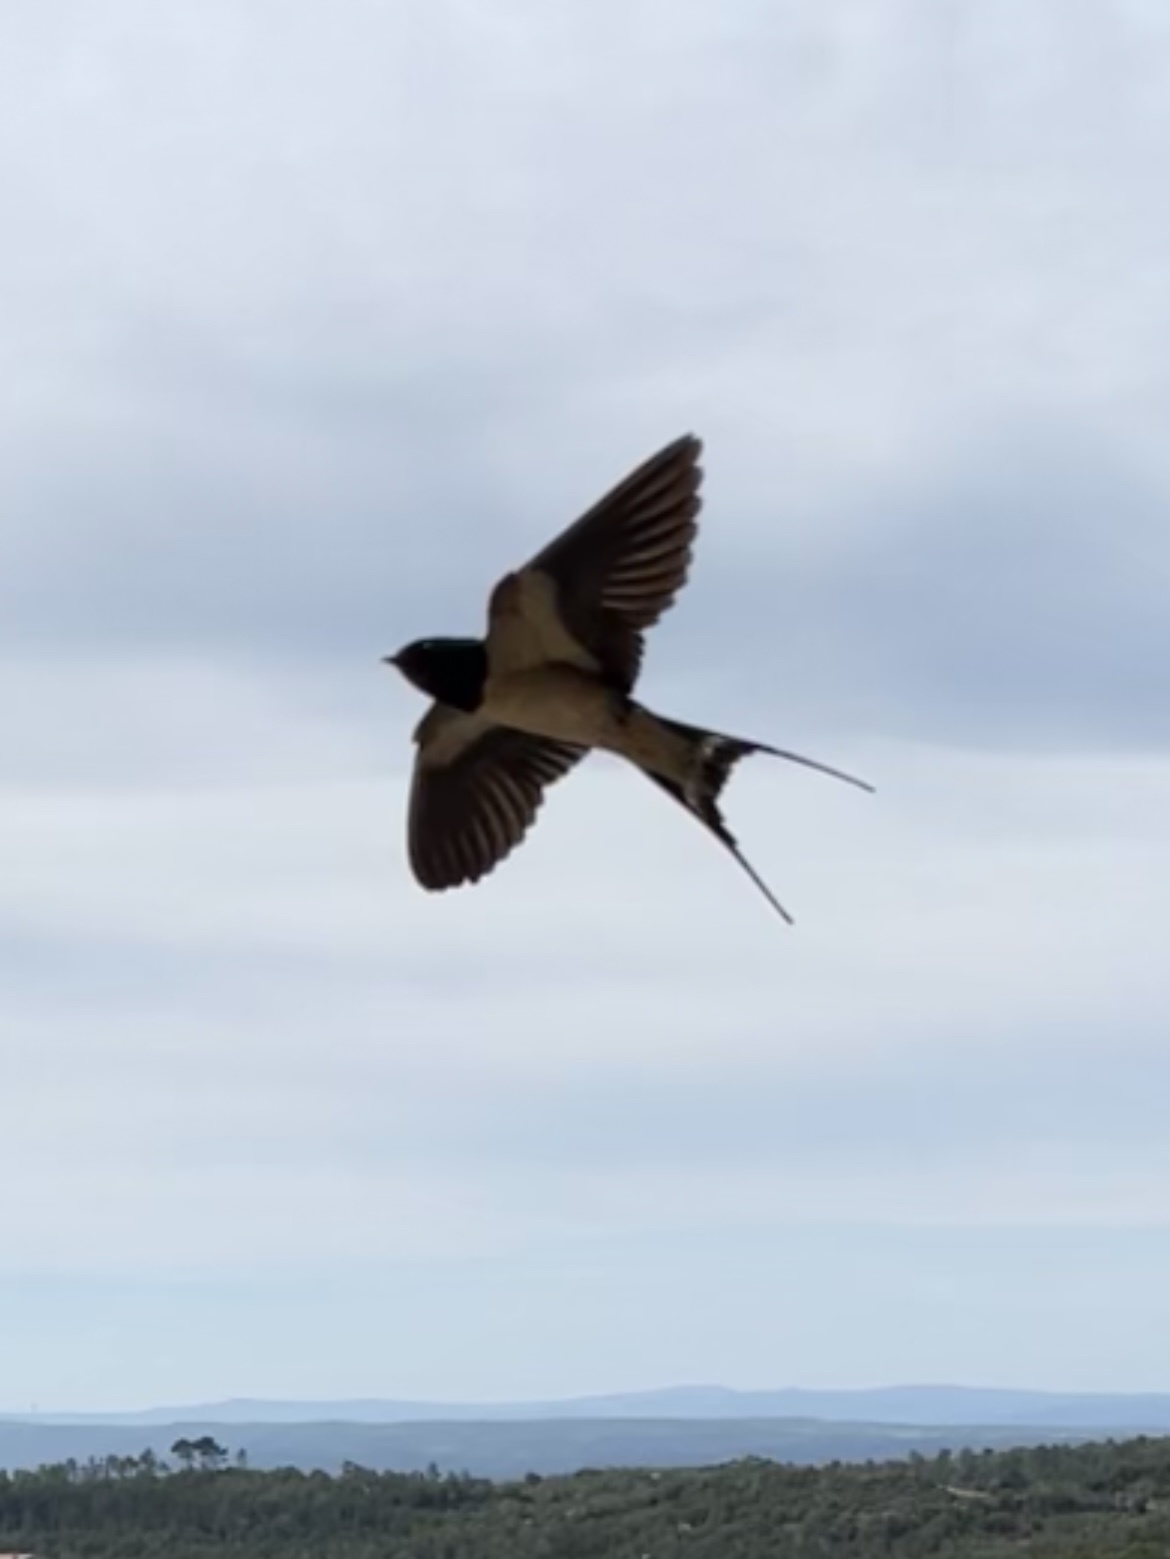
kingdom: Animalia
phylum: Chordata
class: Aves
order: Passeriformes
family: Hirundinidae
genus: Hirundo
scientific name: Hirundo rustica
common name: Barn swallow
